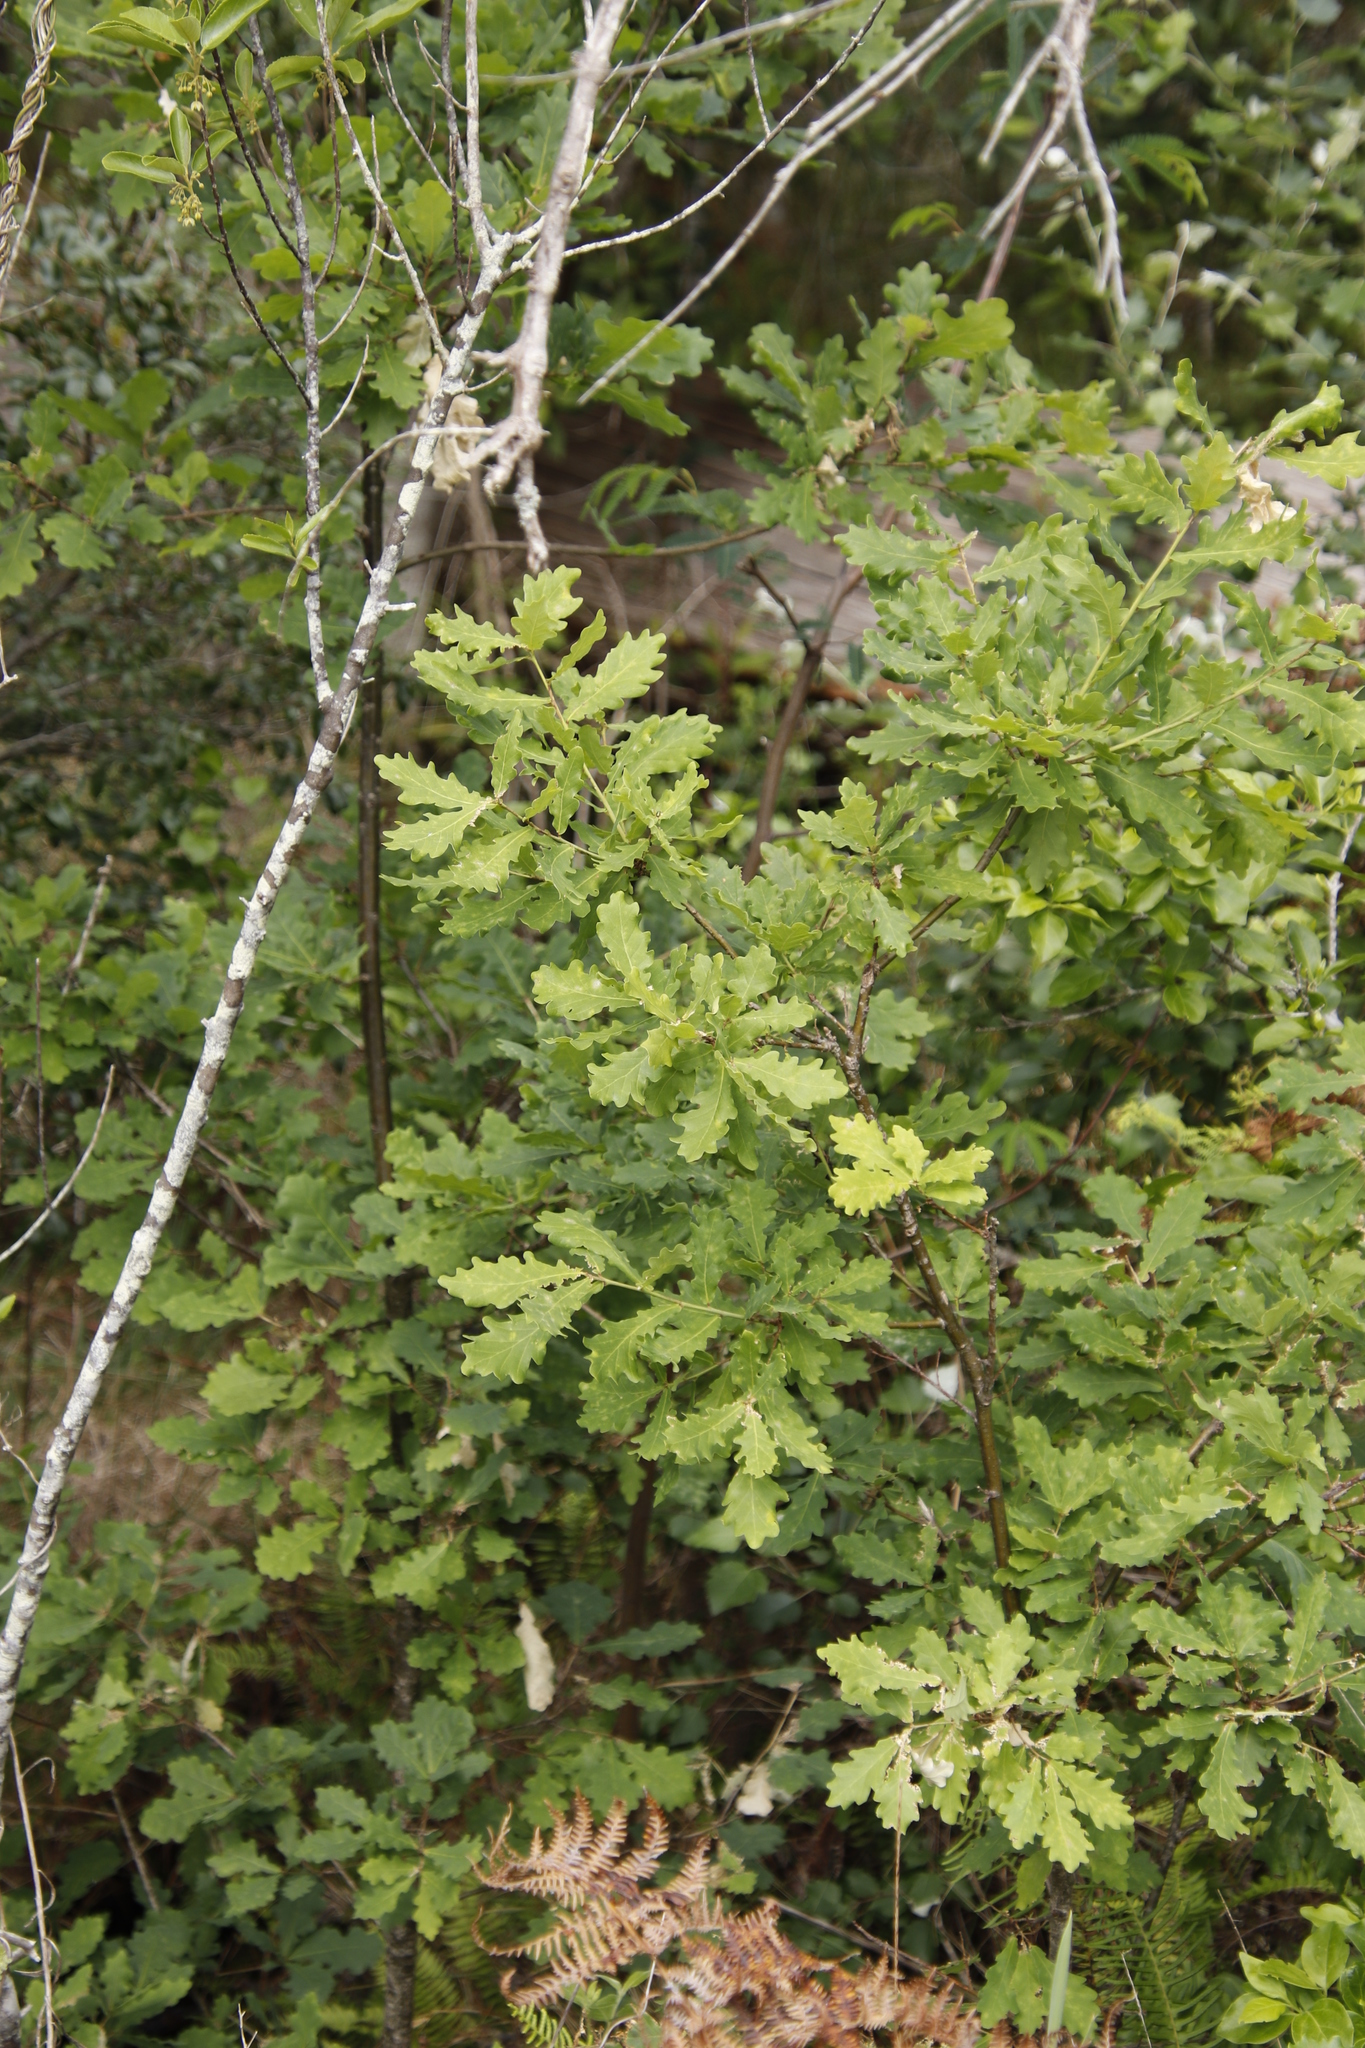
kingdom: Plantae
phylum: Tracheophyta
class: Magnoliopsida
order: Fagales
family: Fagaceae
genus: Quercus
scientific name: Quercus robur
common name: Pedunculate oak
